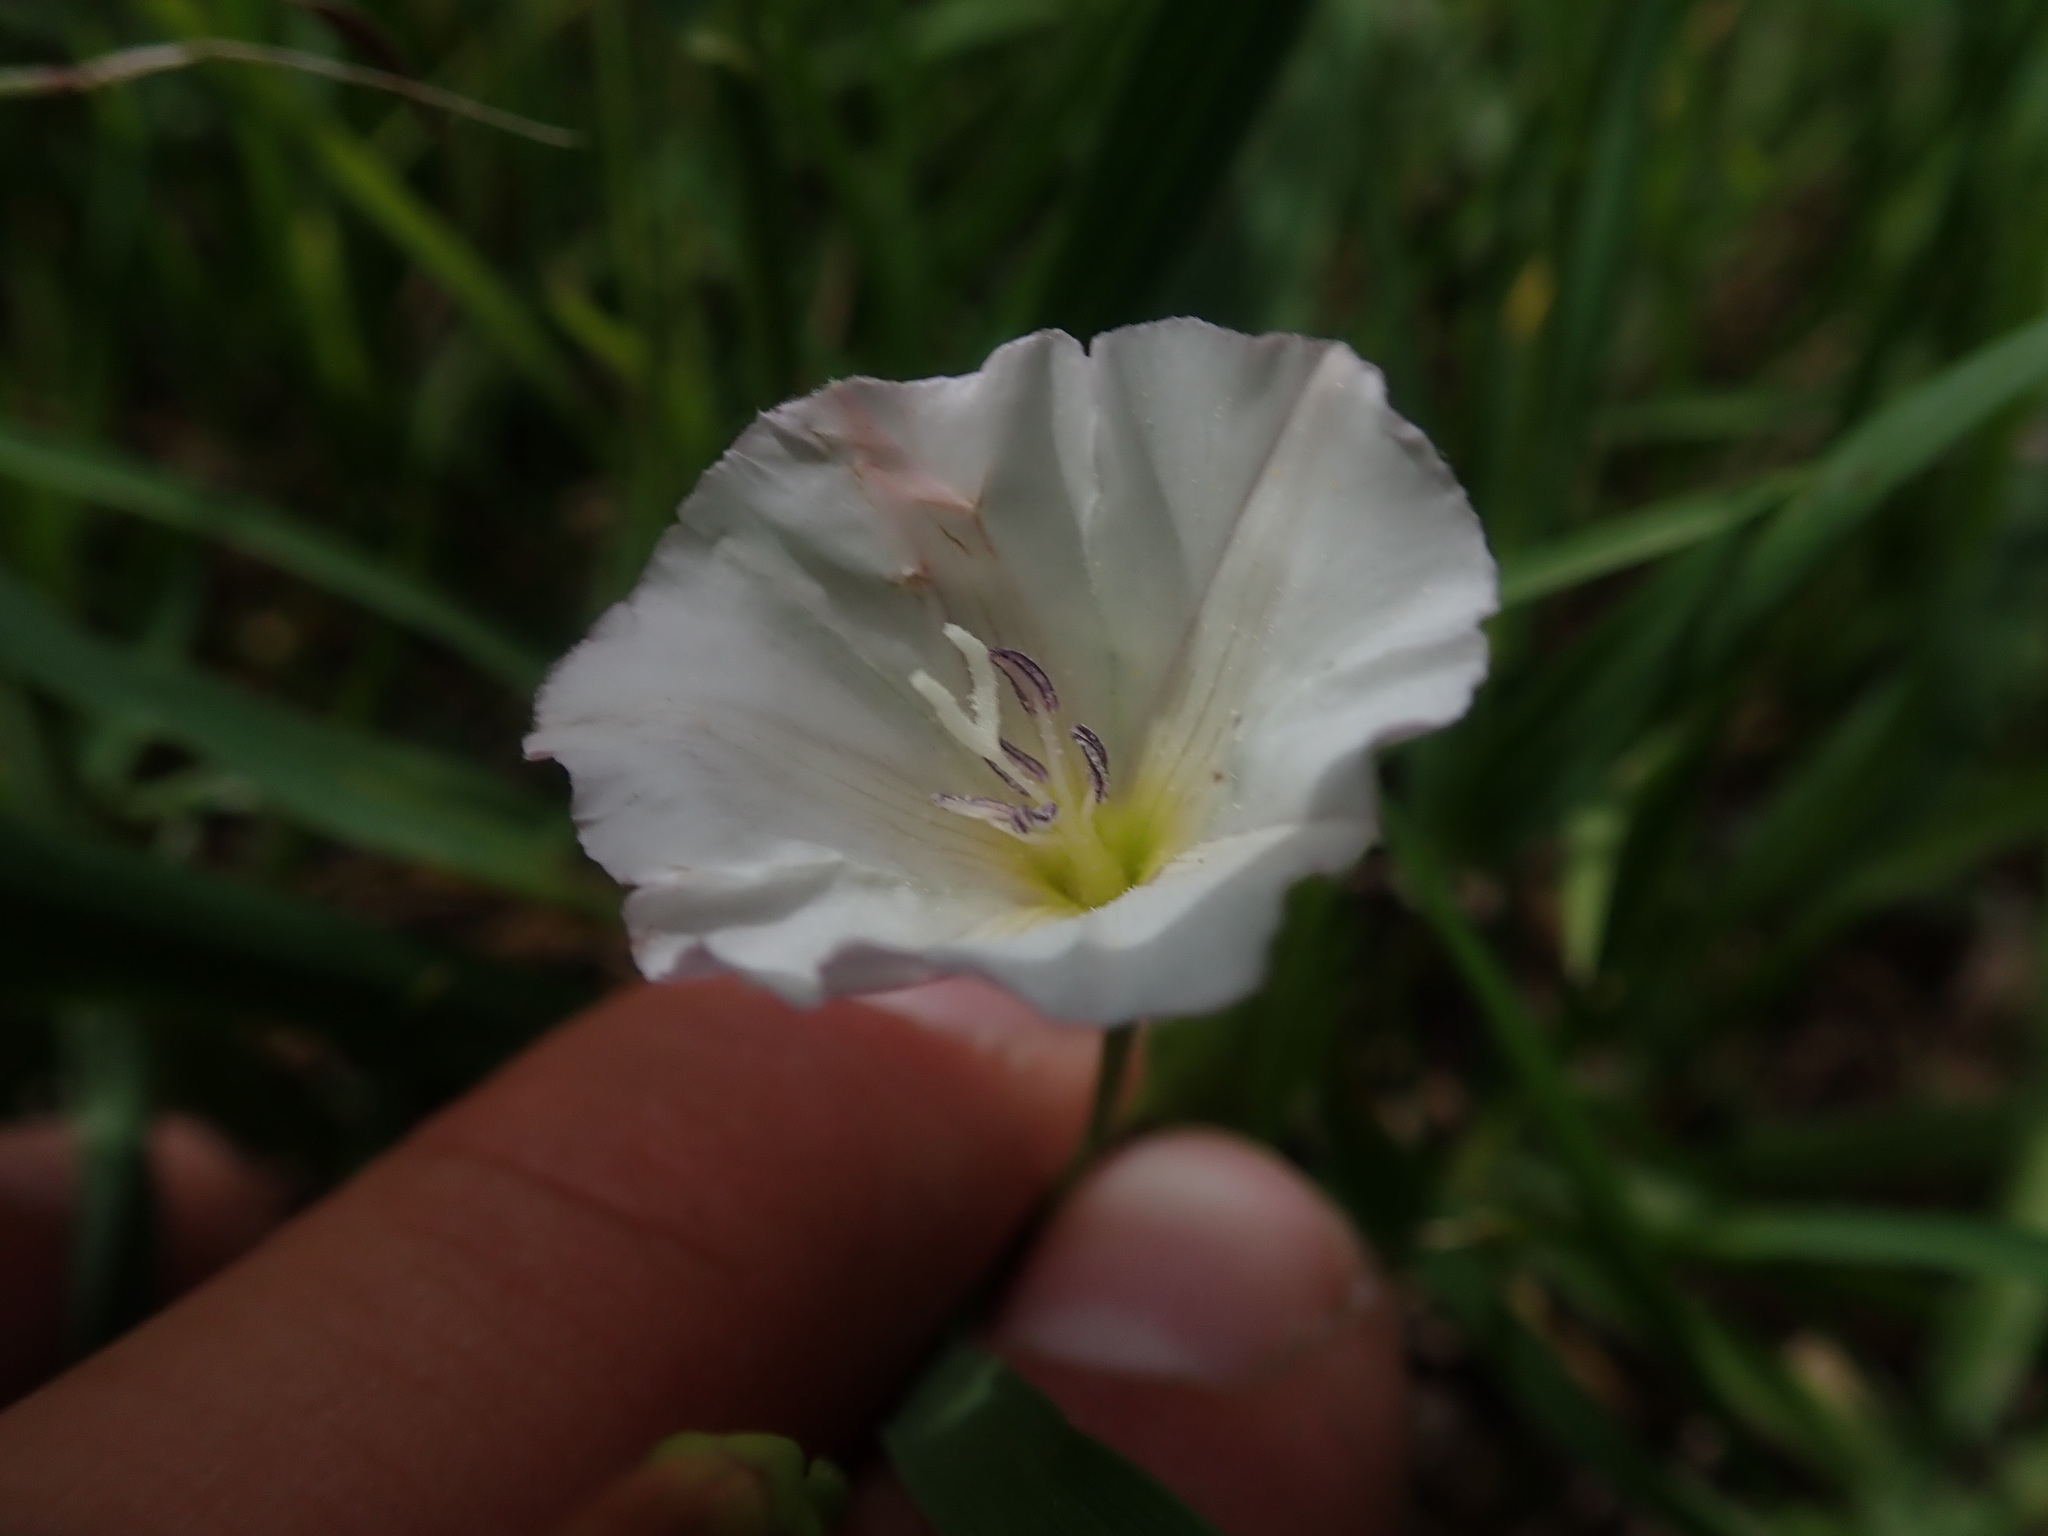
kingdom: Plantae
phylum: Tracheophyta
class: Magnoliopsida
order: Solanales
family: Convolvulaceae
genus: Convolvulus
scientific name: Convolvulus arvensis
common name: Field bindweed
